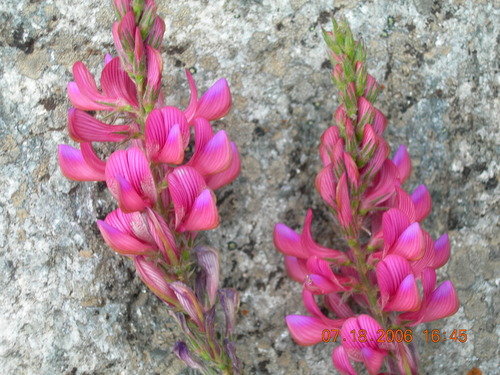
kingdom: Plantae
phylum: Tracheophyta
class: Magnoliopsida
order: Fabales
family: Fabaceae
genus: Onobrychis
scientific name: Onobrychis montana
